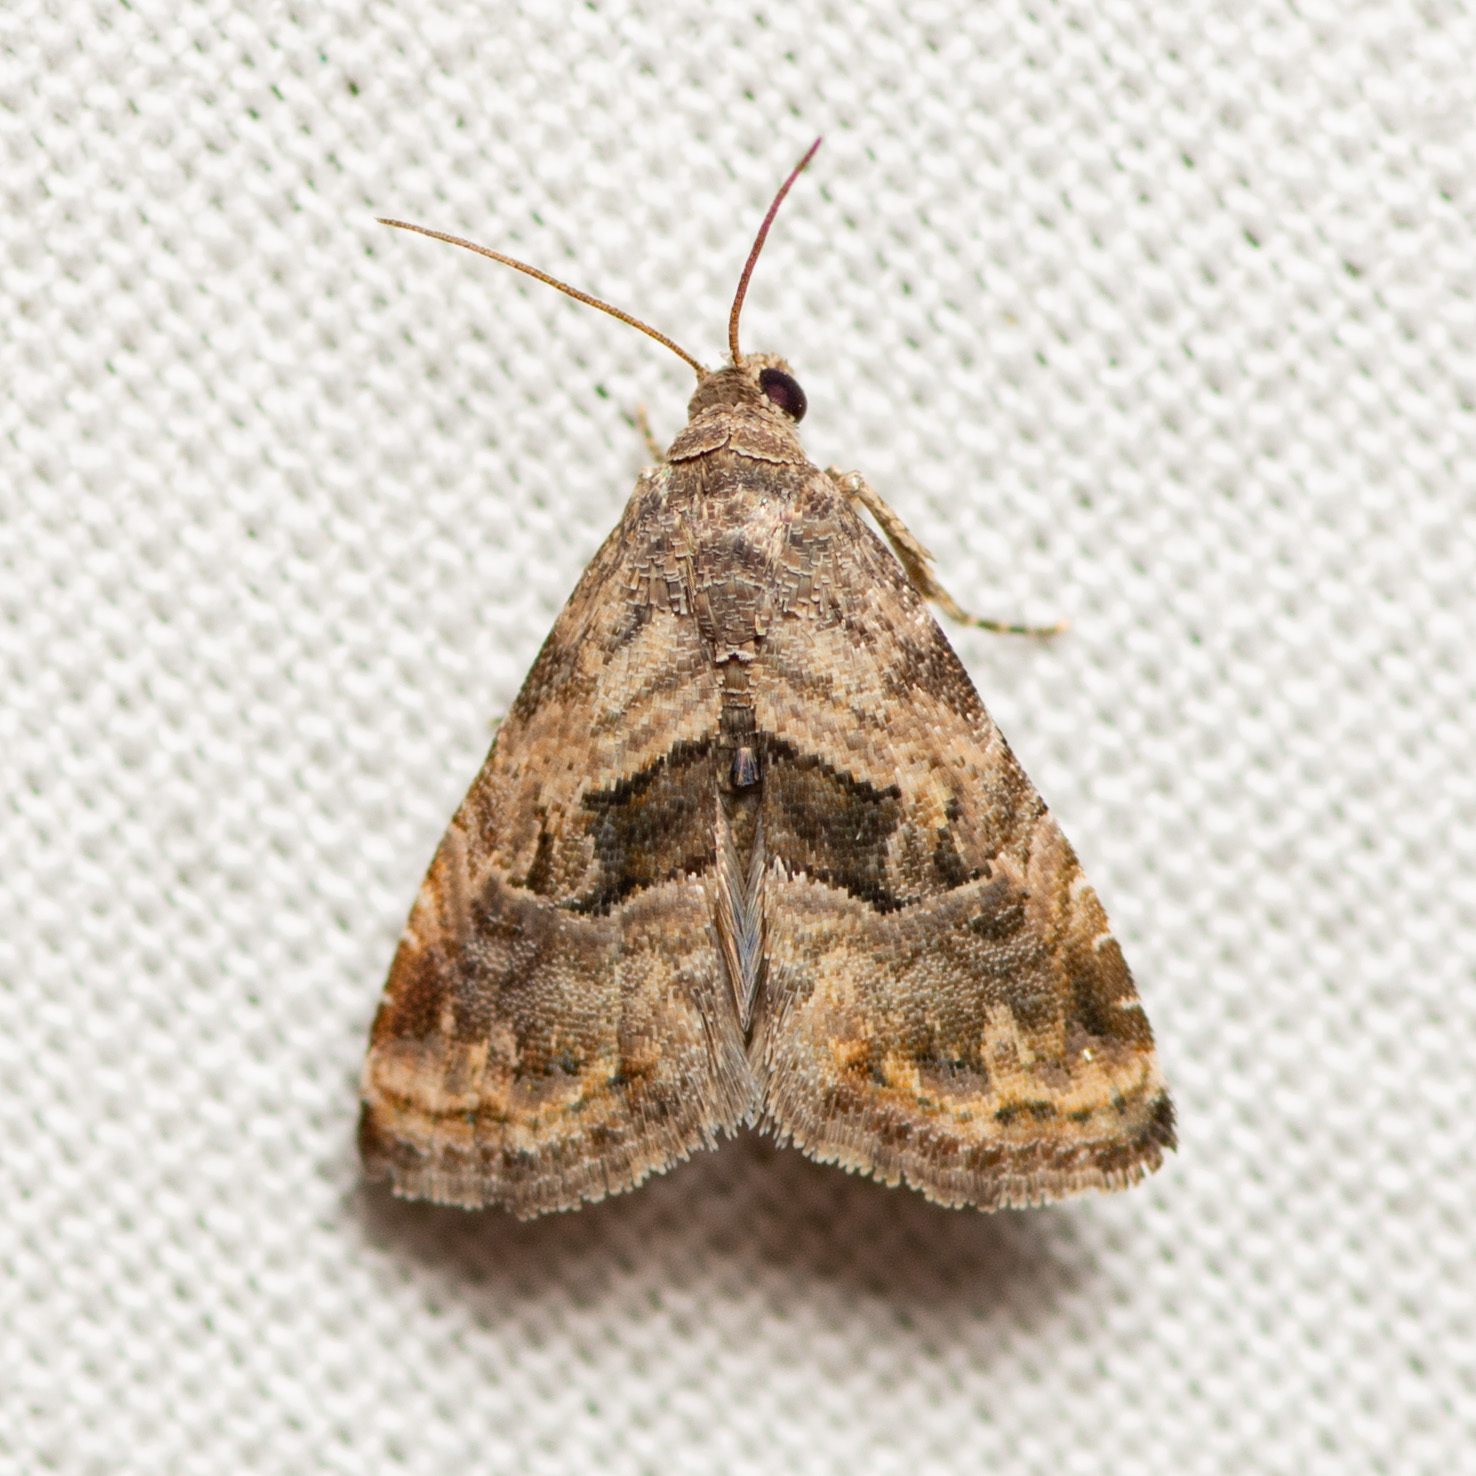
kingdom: Animalia
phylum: Arthropoda
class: Insecta
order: Lepidoptera
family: Noctuidae
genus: Tripudia
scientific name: Tripudia quadrifera
